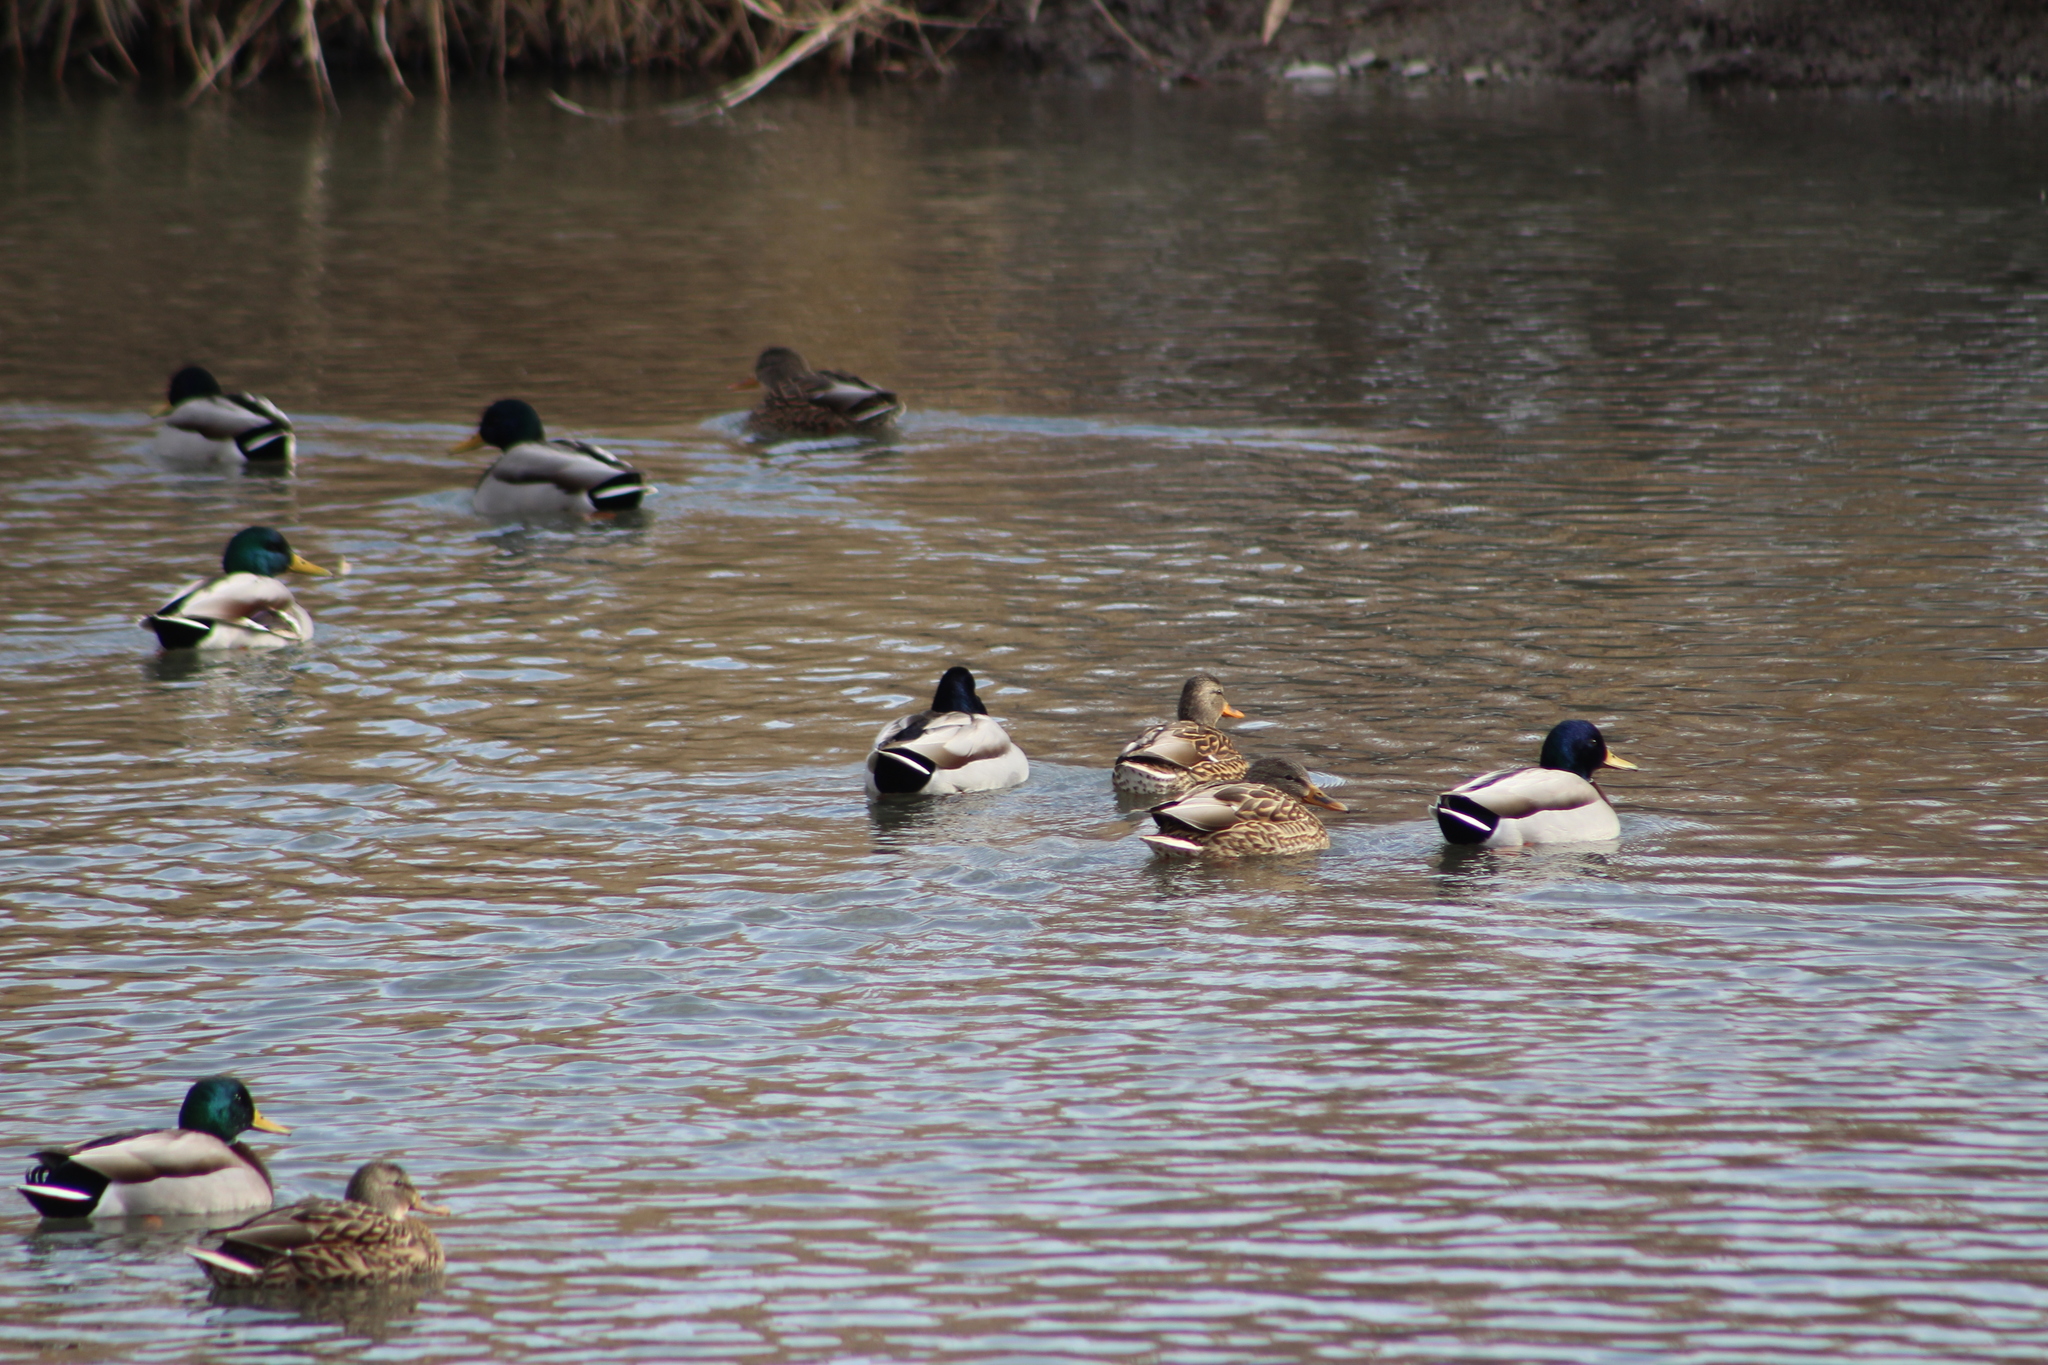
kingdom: Animalia
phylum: Chordata
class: Aves
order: Anseriformes
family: Anatidae
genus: Anas
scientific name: Anas platyrhynchos
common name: Mallard
